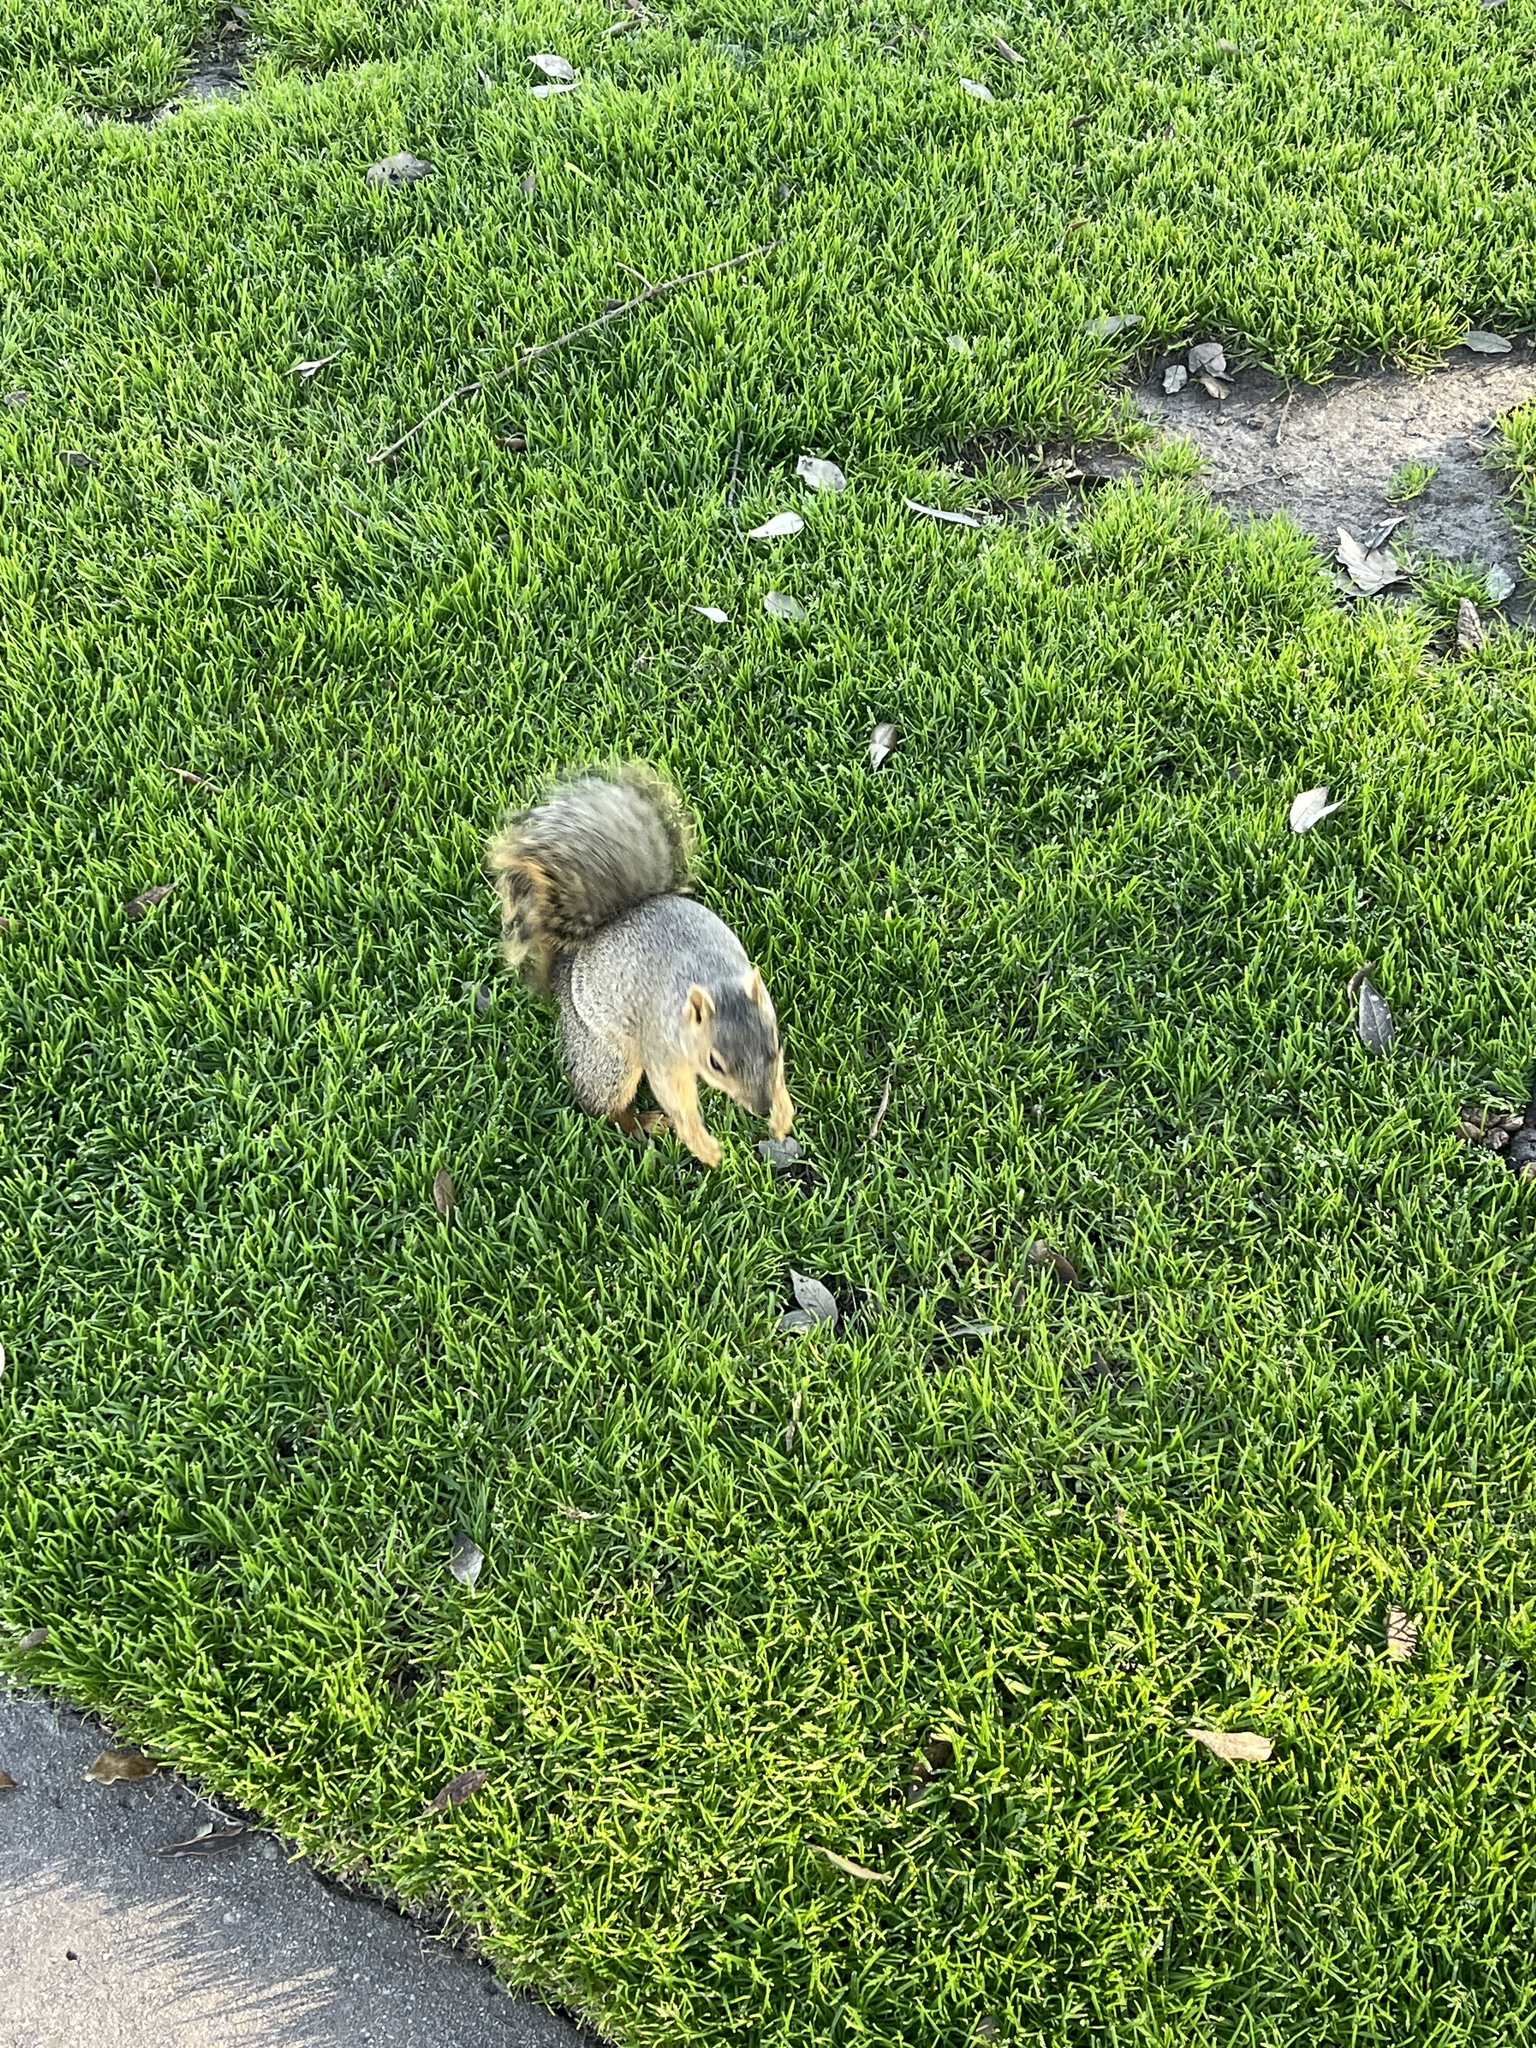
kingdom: Animalia
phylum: Chordata
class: Mammalia
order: Rodentia
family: Sciuridae
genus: Sciurus
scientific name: Sciurus niger
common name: Fox squirrel
